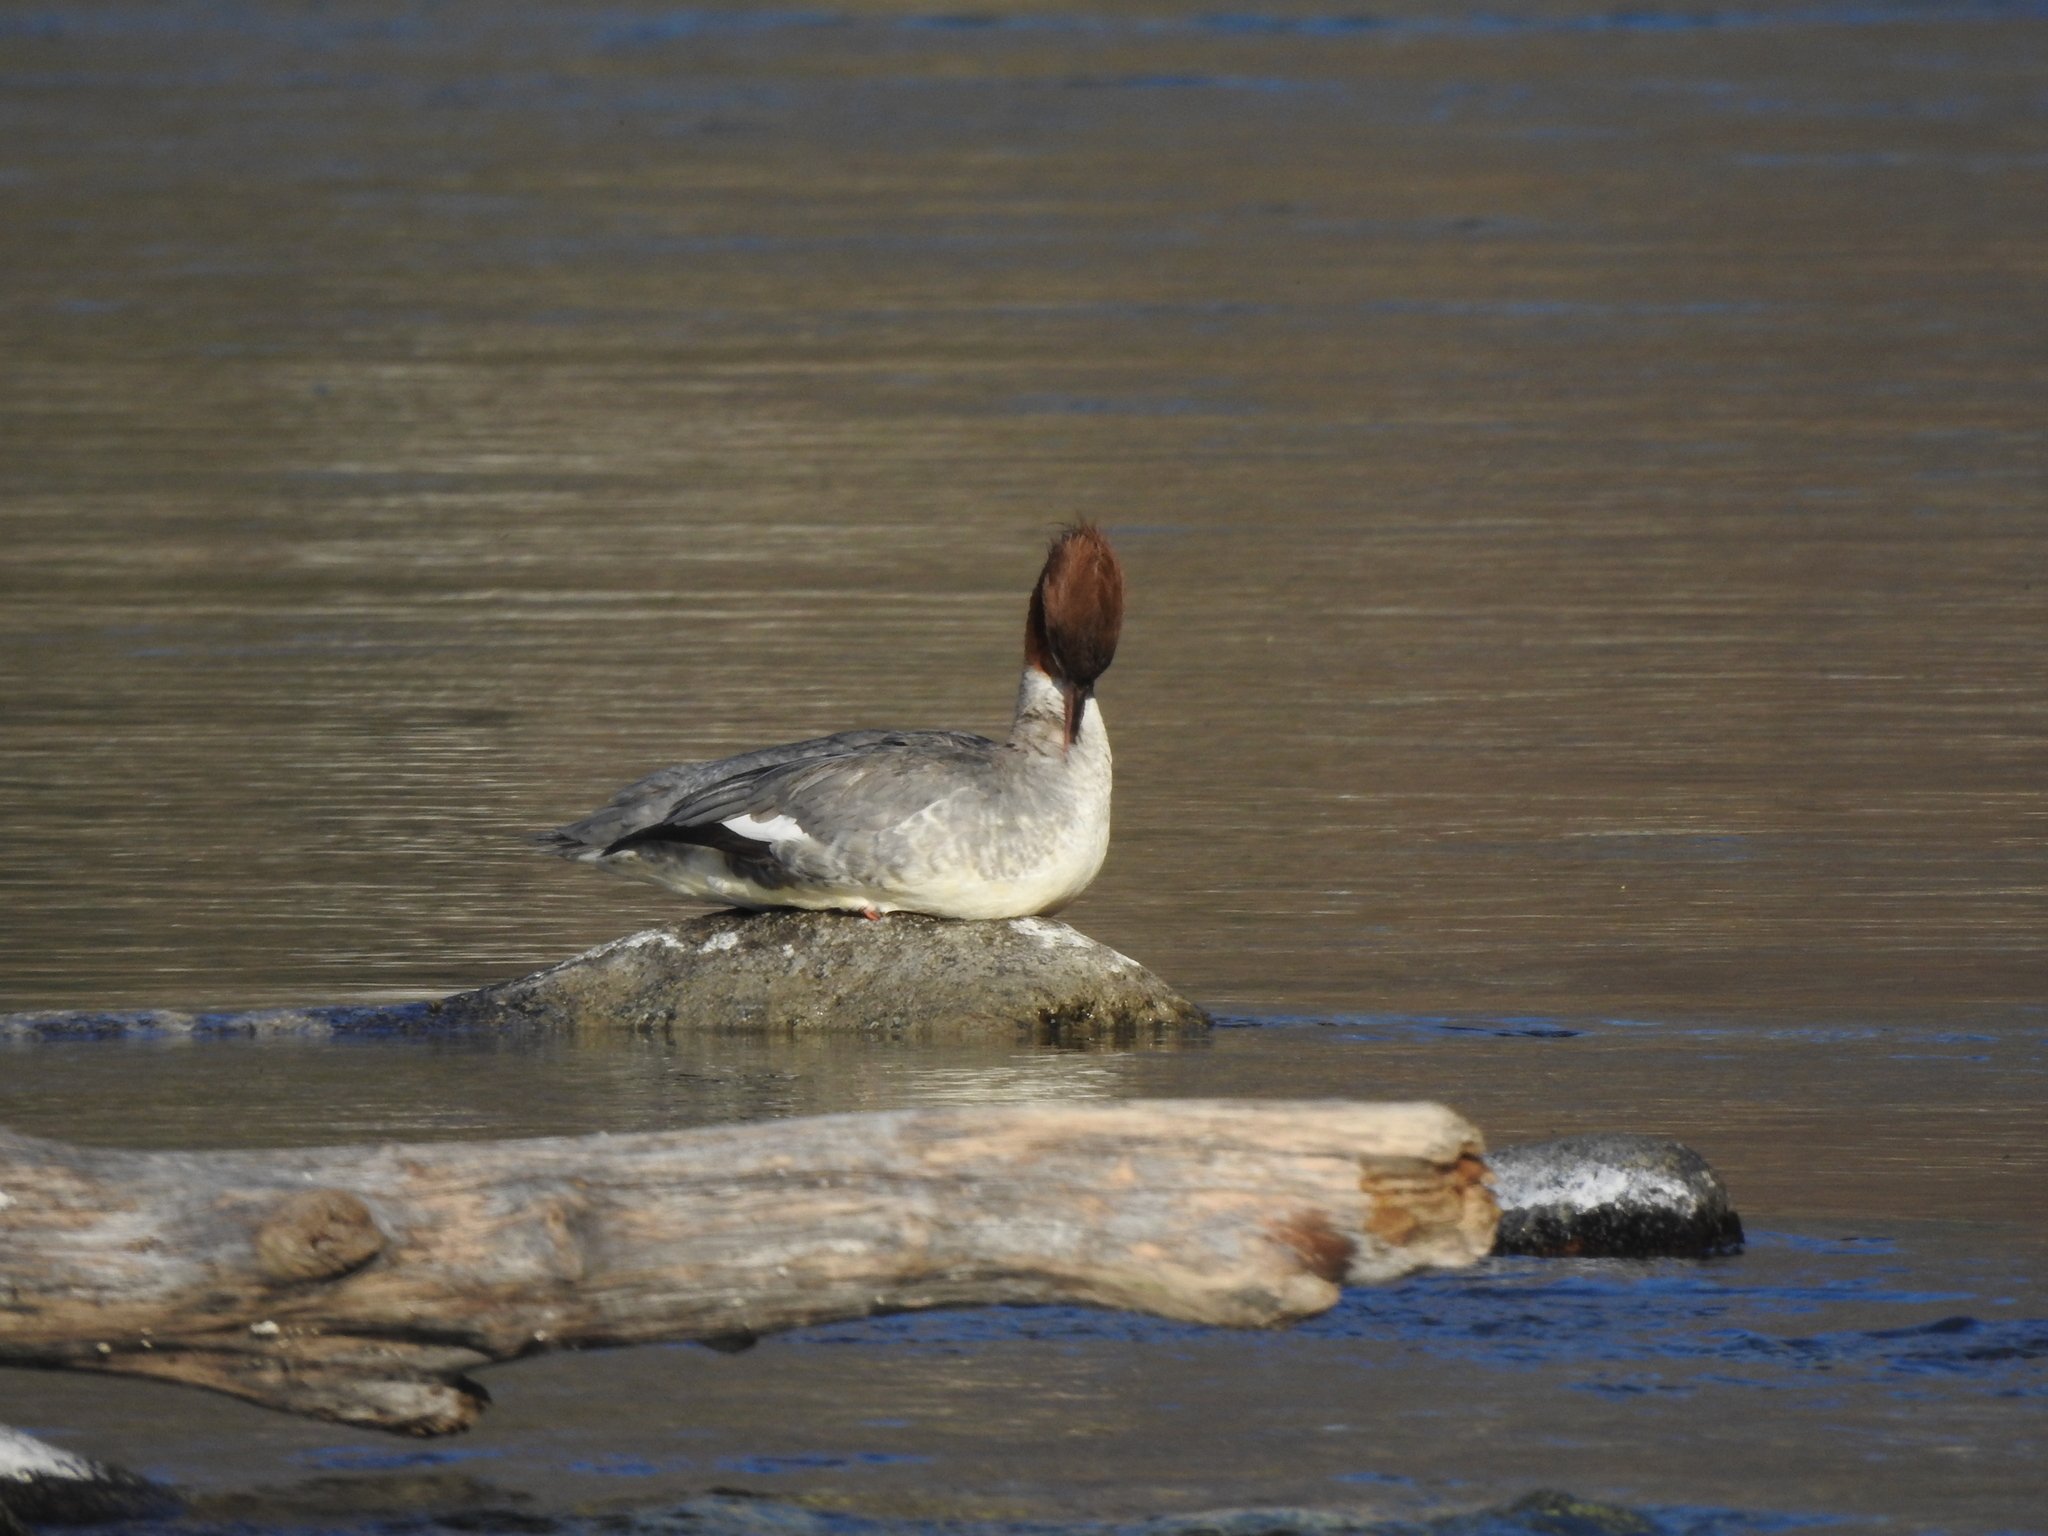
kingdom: Animalia
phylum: Chordata
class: Aves
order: Anseriformes
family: Anatidae
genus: Mergus
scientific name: Mergus merganser
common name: Common merganser
